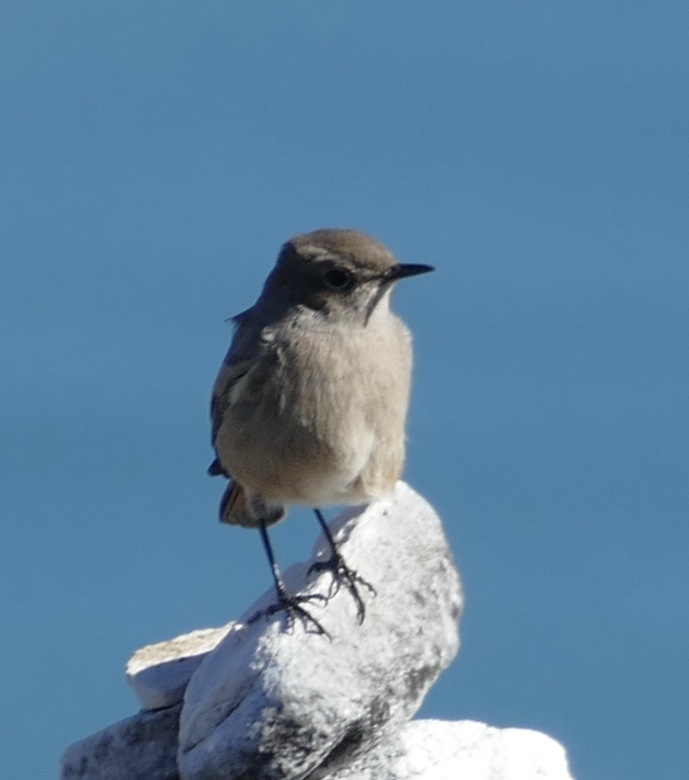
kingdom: Animalia
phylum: Chordata
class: Aves
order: Passeriformes
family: Muscicapidae
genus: Oenanthe
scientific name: Oenanthe familiaris
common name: Familiar chat
